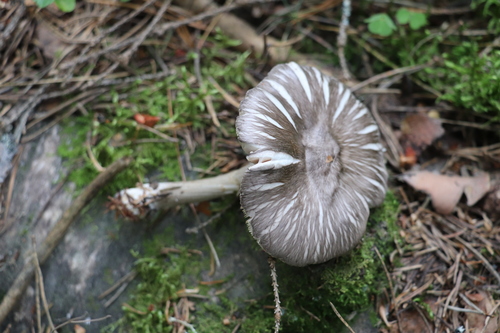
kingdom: Fungi
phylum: Basidiomycota
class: Agaricomycetes
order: Agaricales
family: Pluteaceae
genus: Pluteus
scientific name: Pluteus
